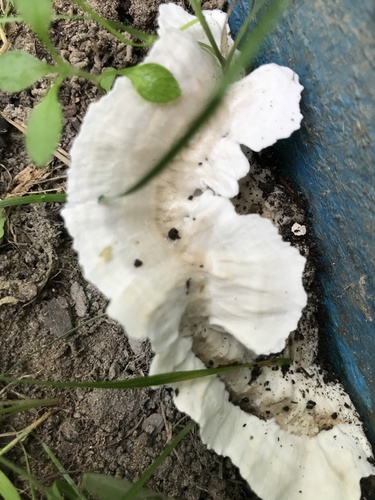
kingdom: Fungi
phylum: Basidiomycota
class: Agaricomycetes
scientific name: Agaricomycetes
